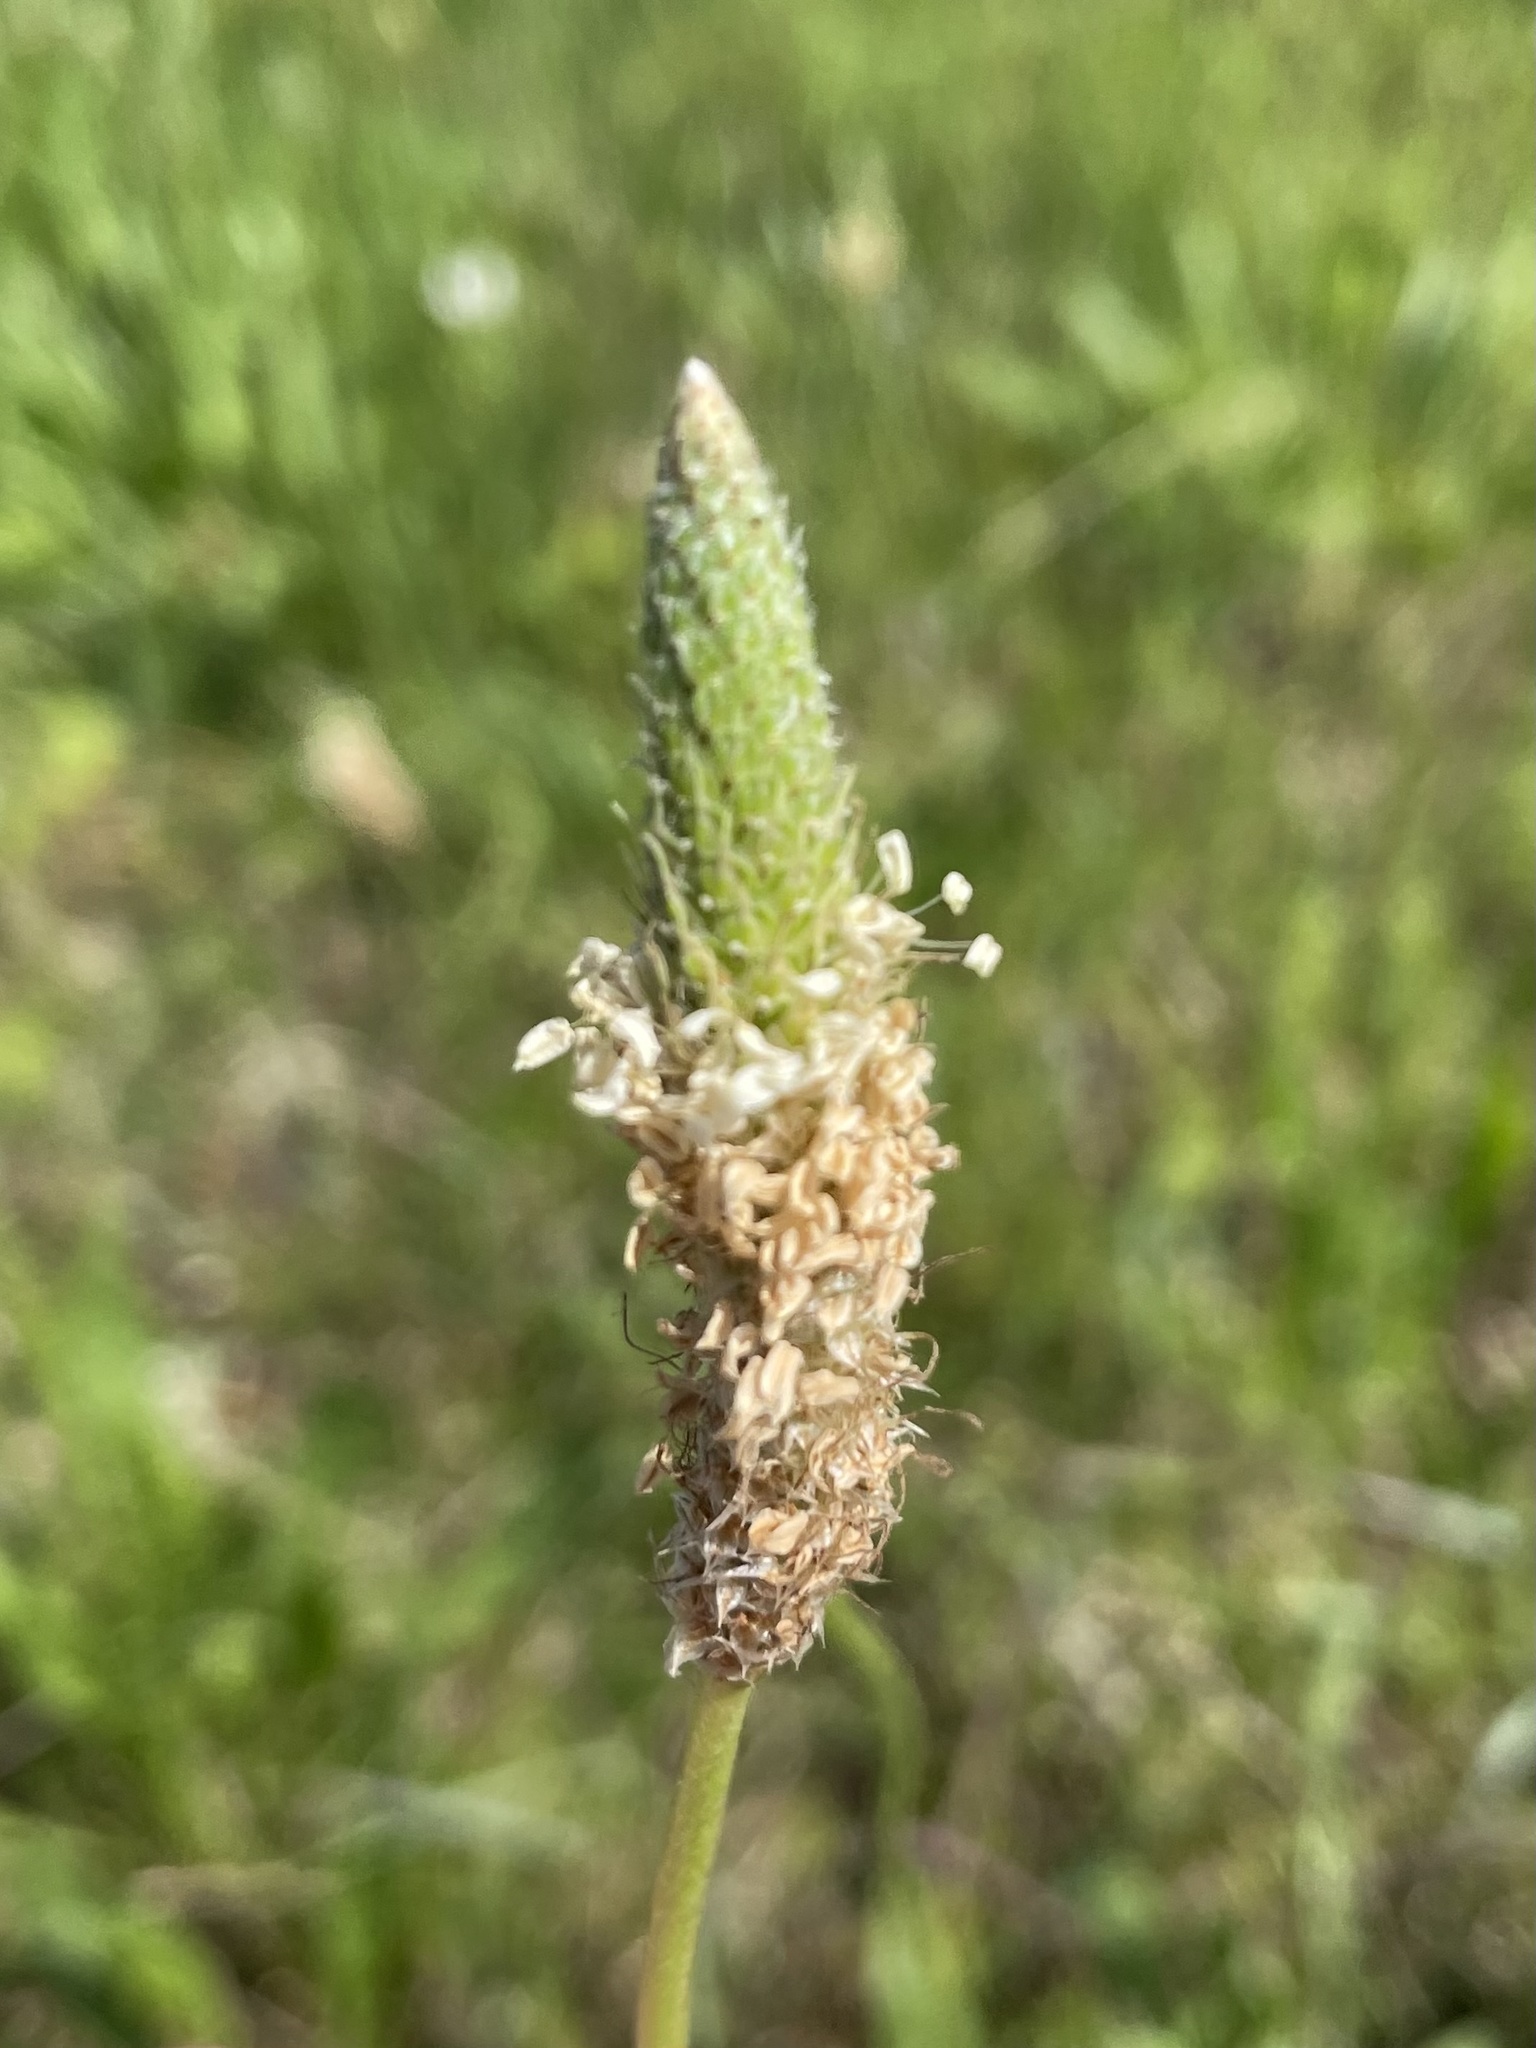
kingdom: Plantae
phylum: Tracheophyta
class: Magnoliopsida
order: Lamiales
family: Plantaginaceae
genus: Plantago
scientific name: Plantago lanceolata
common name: Ribwort plantain
